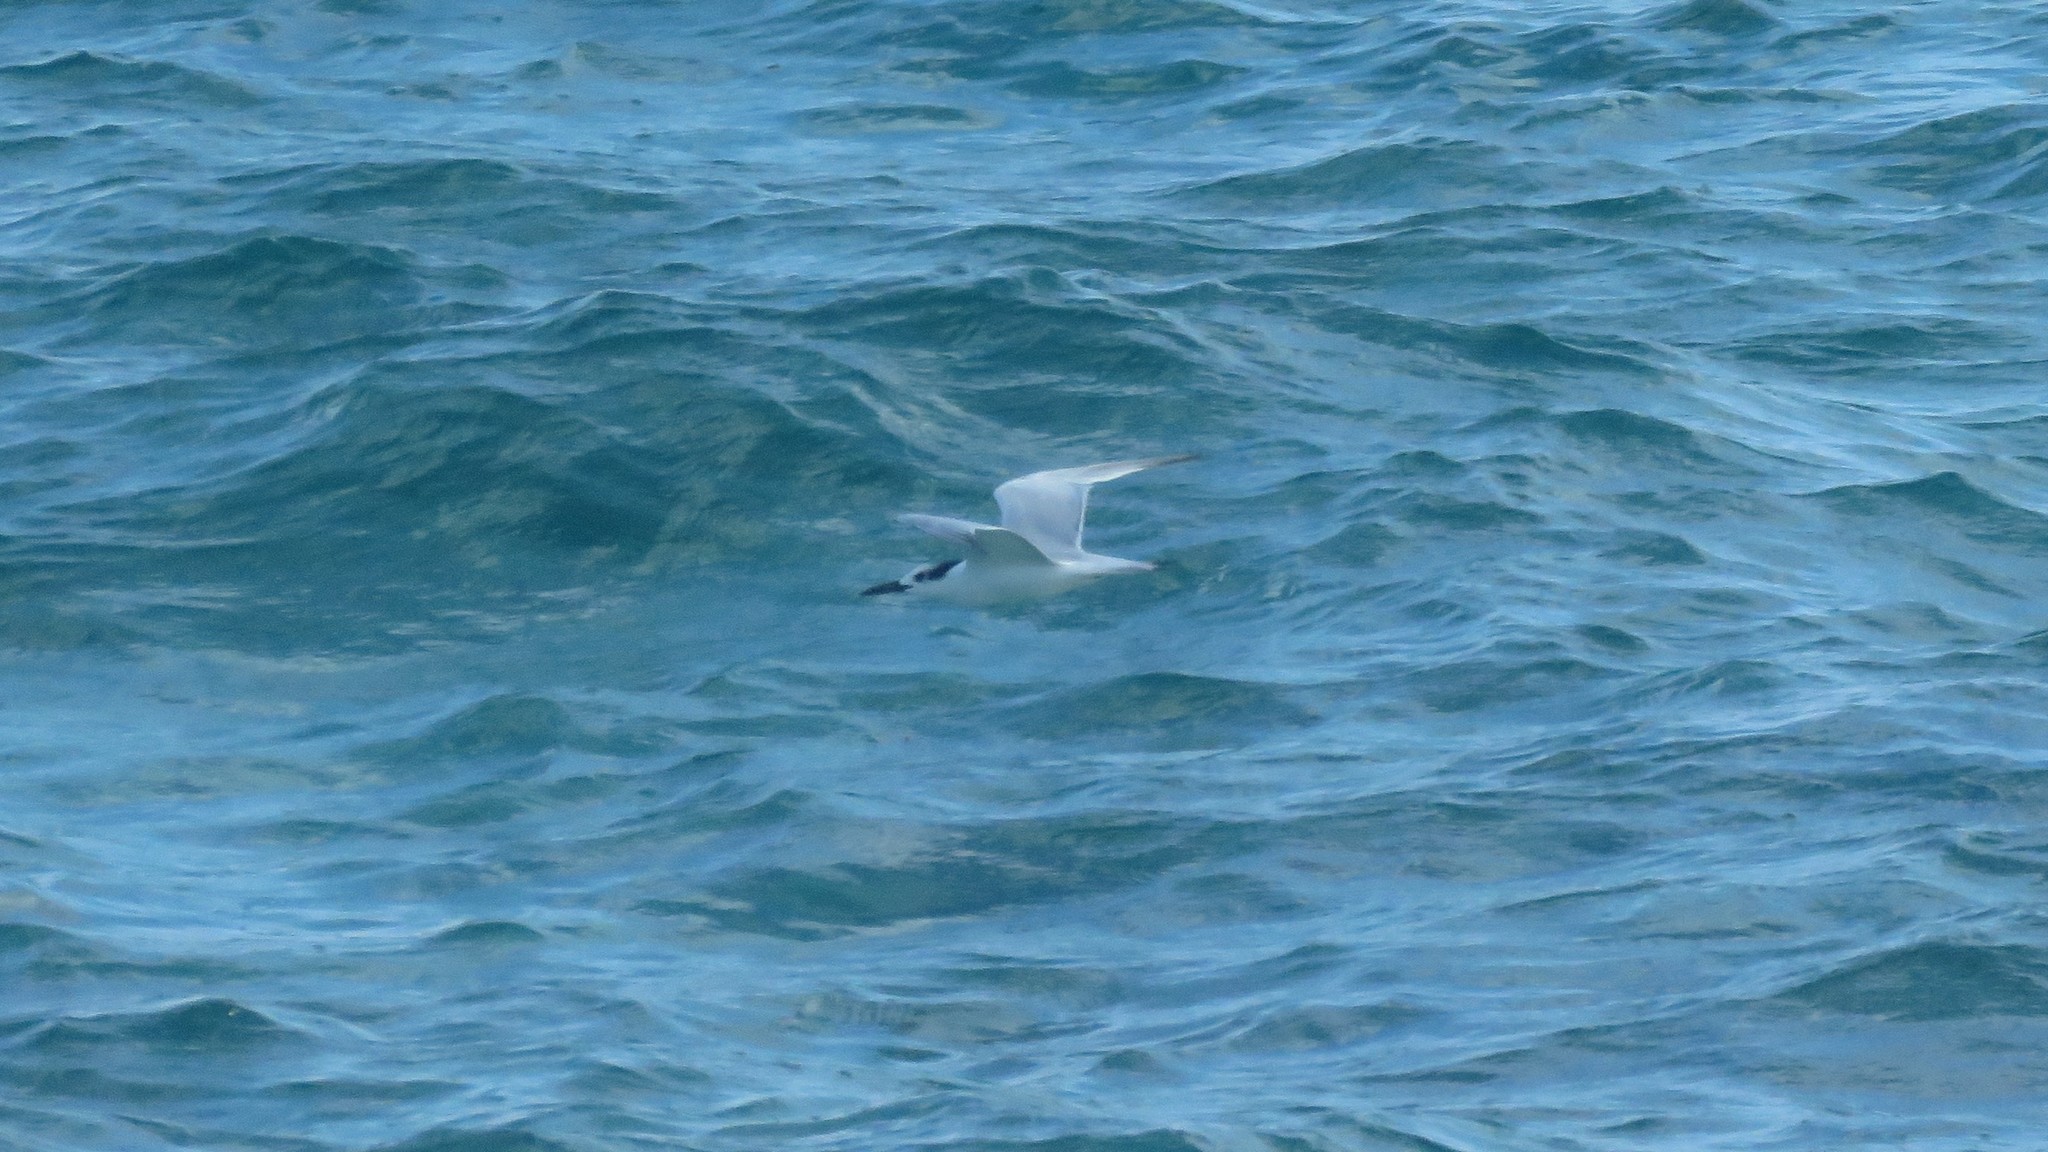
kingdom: Animalia
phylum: Chordata
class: Aves
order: Charadriiformes
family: Laridae
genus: Thalasseus
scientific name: Thalasseus sandvicensis
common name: Sandwich tern
